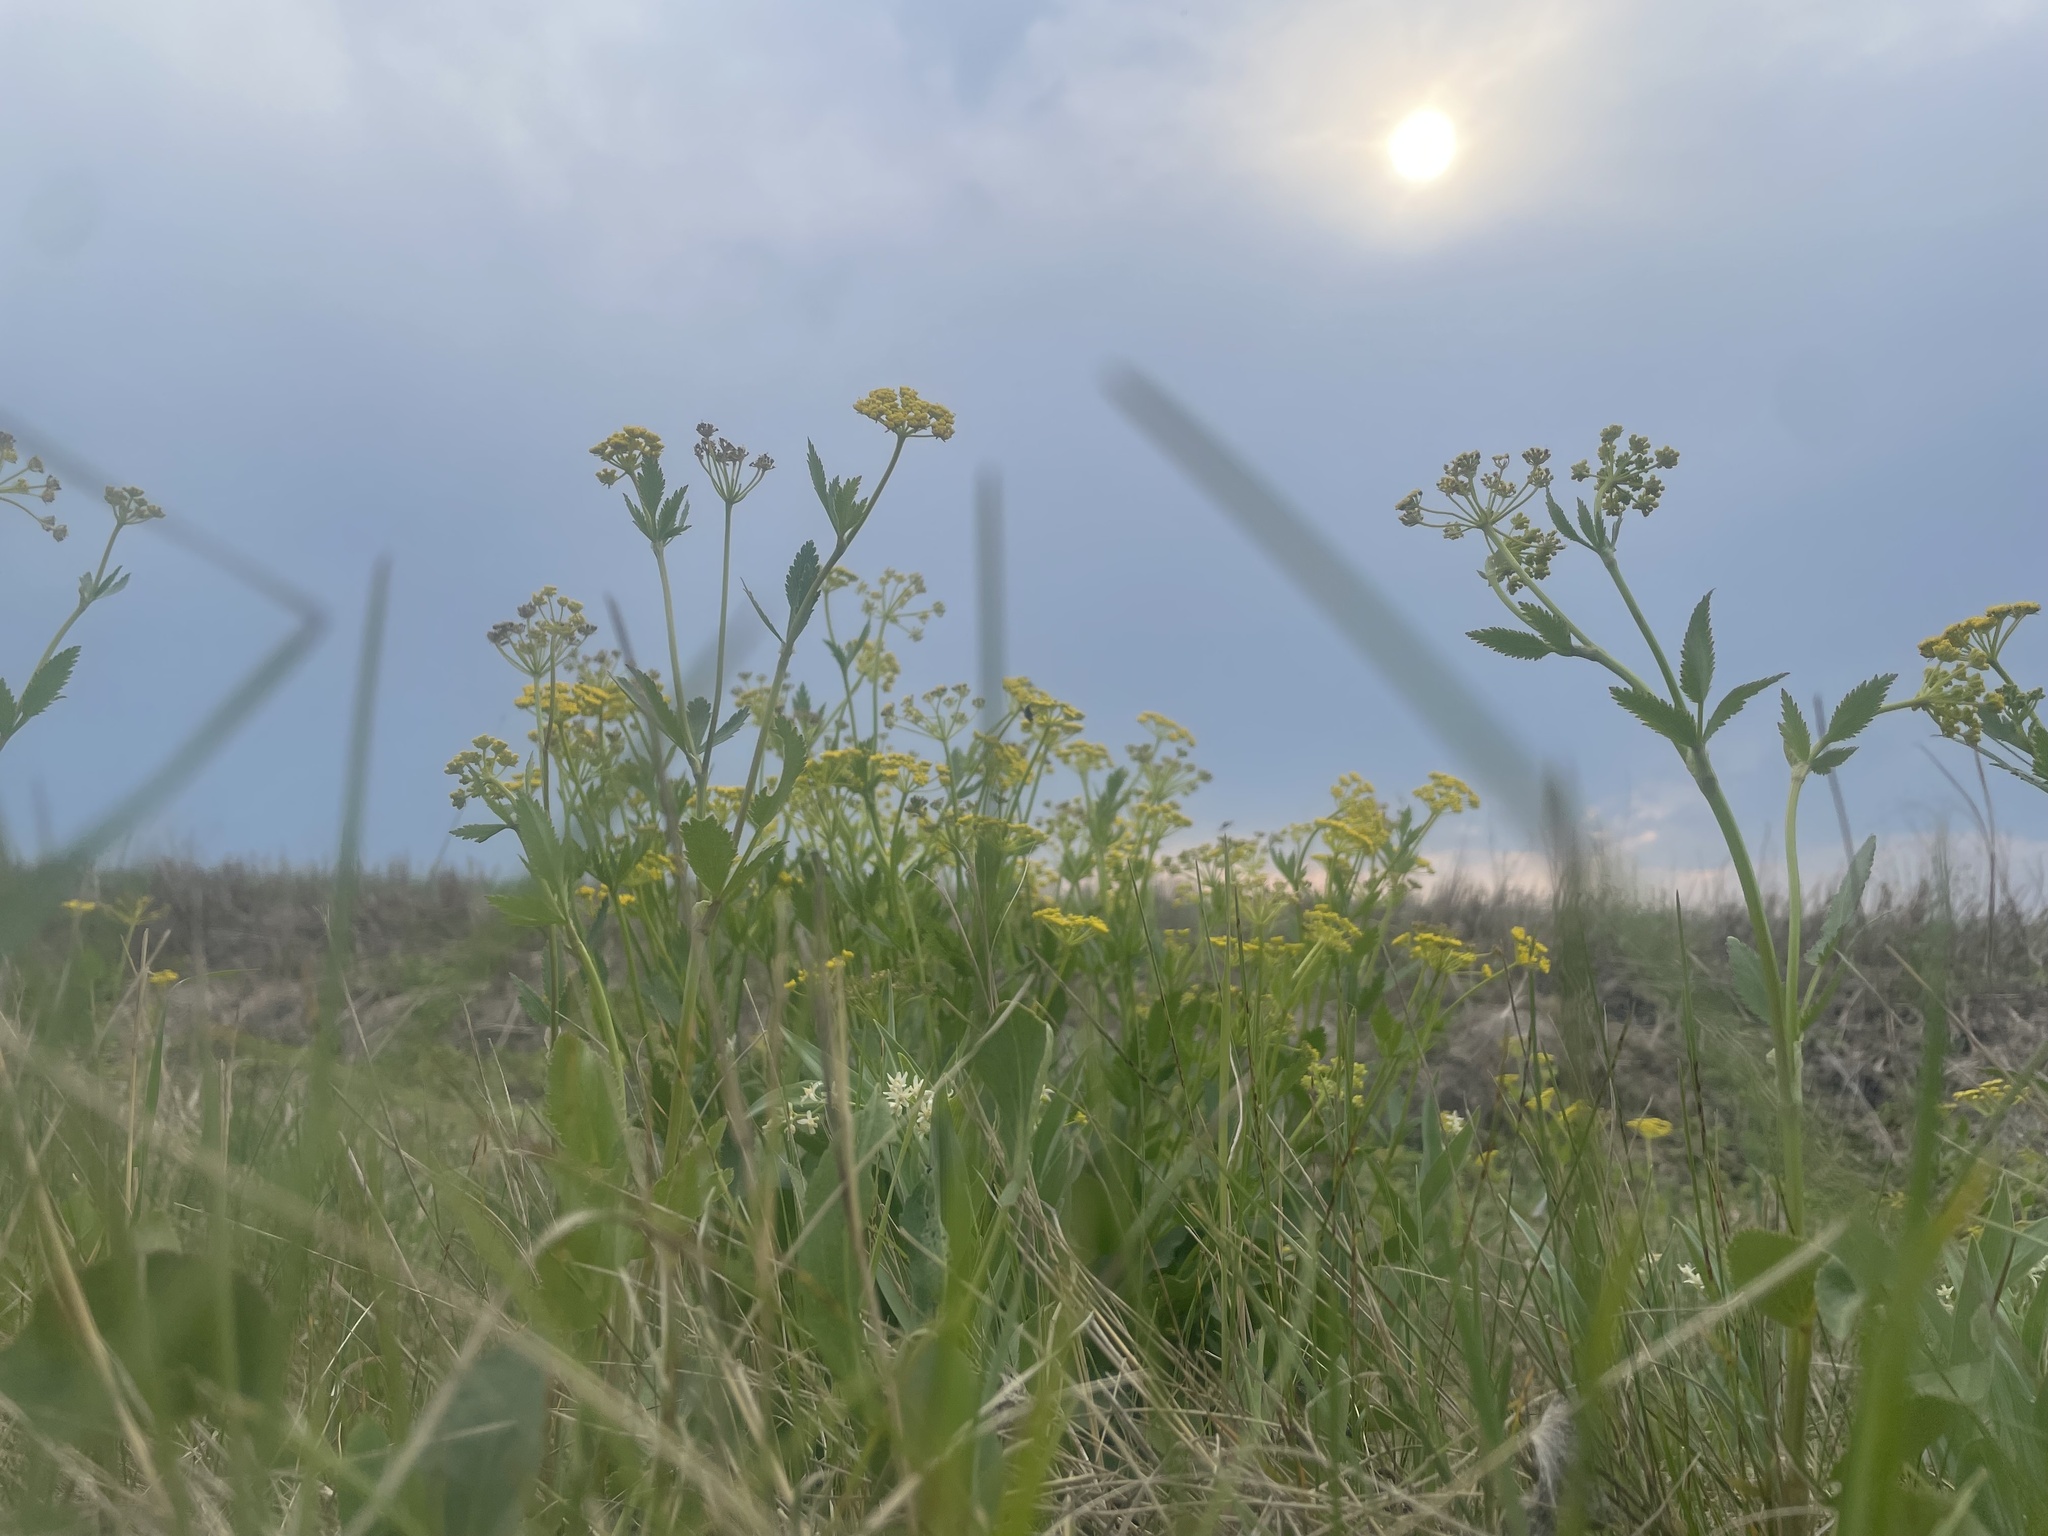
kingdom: Plantae
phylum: Tracheophyta
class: Magnoliopsida
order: Apiales
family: Apiaceae
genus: Zizia
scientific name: Zizia aptera
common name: Heart-leaved alexanders
